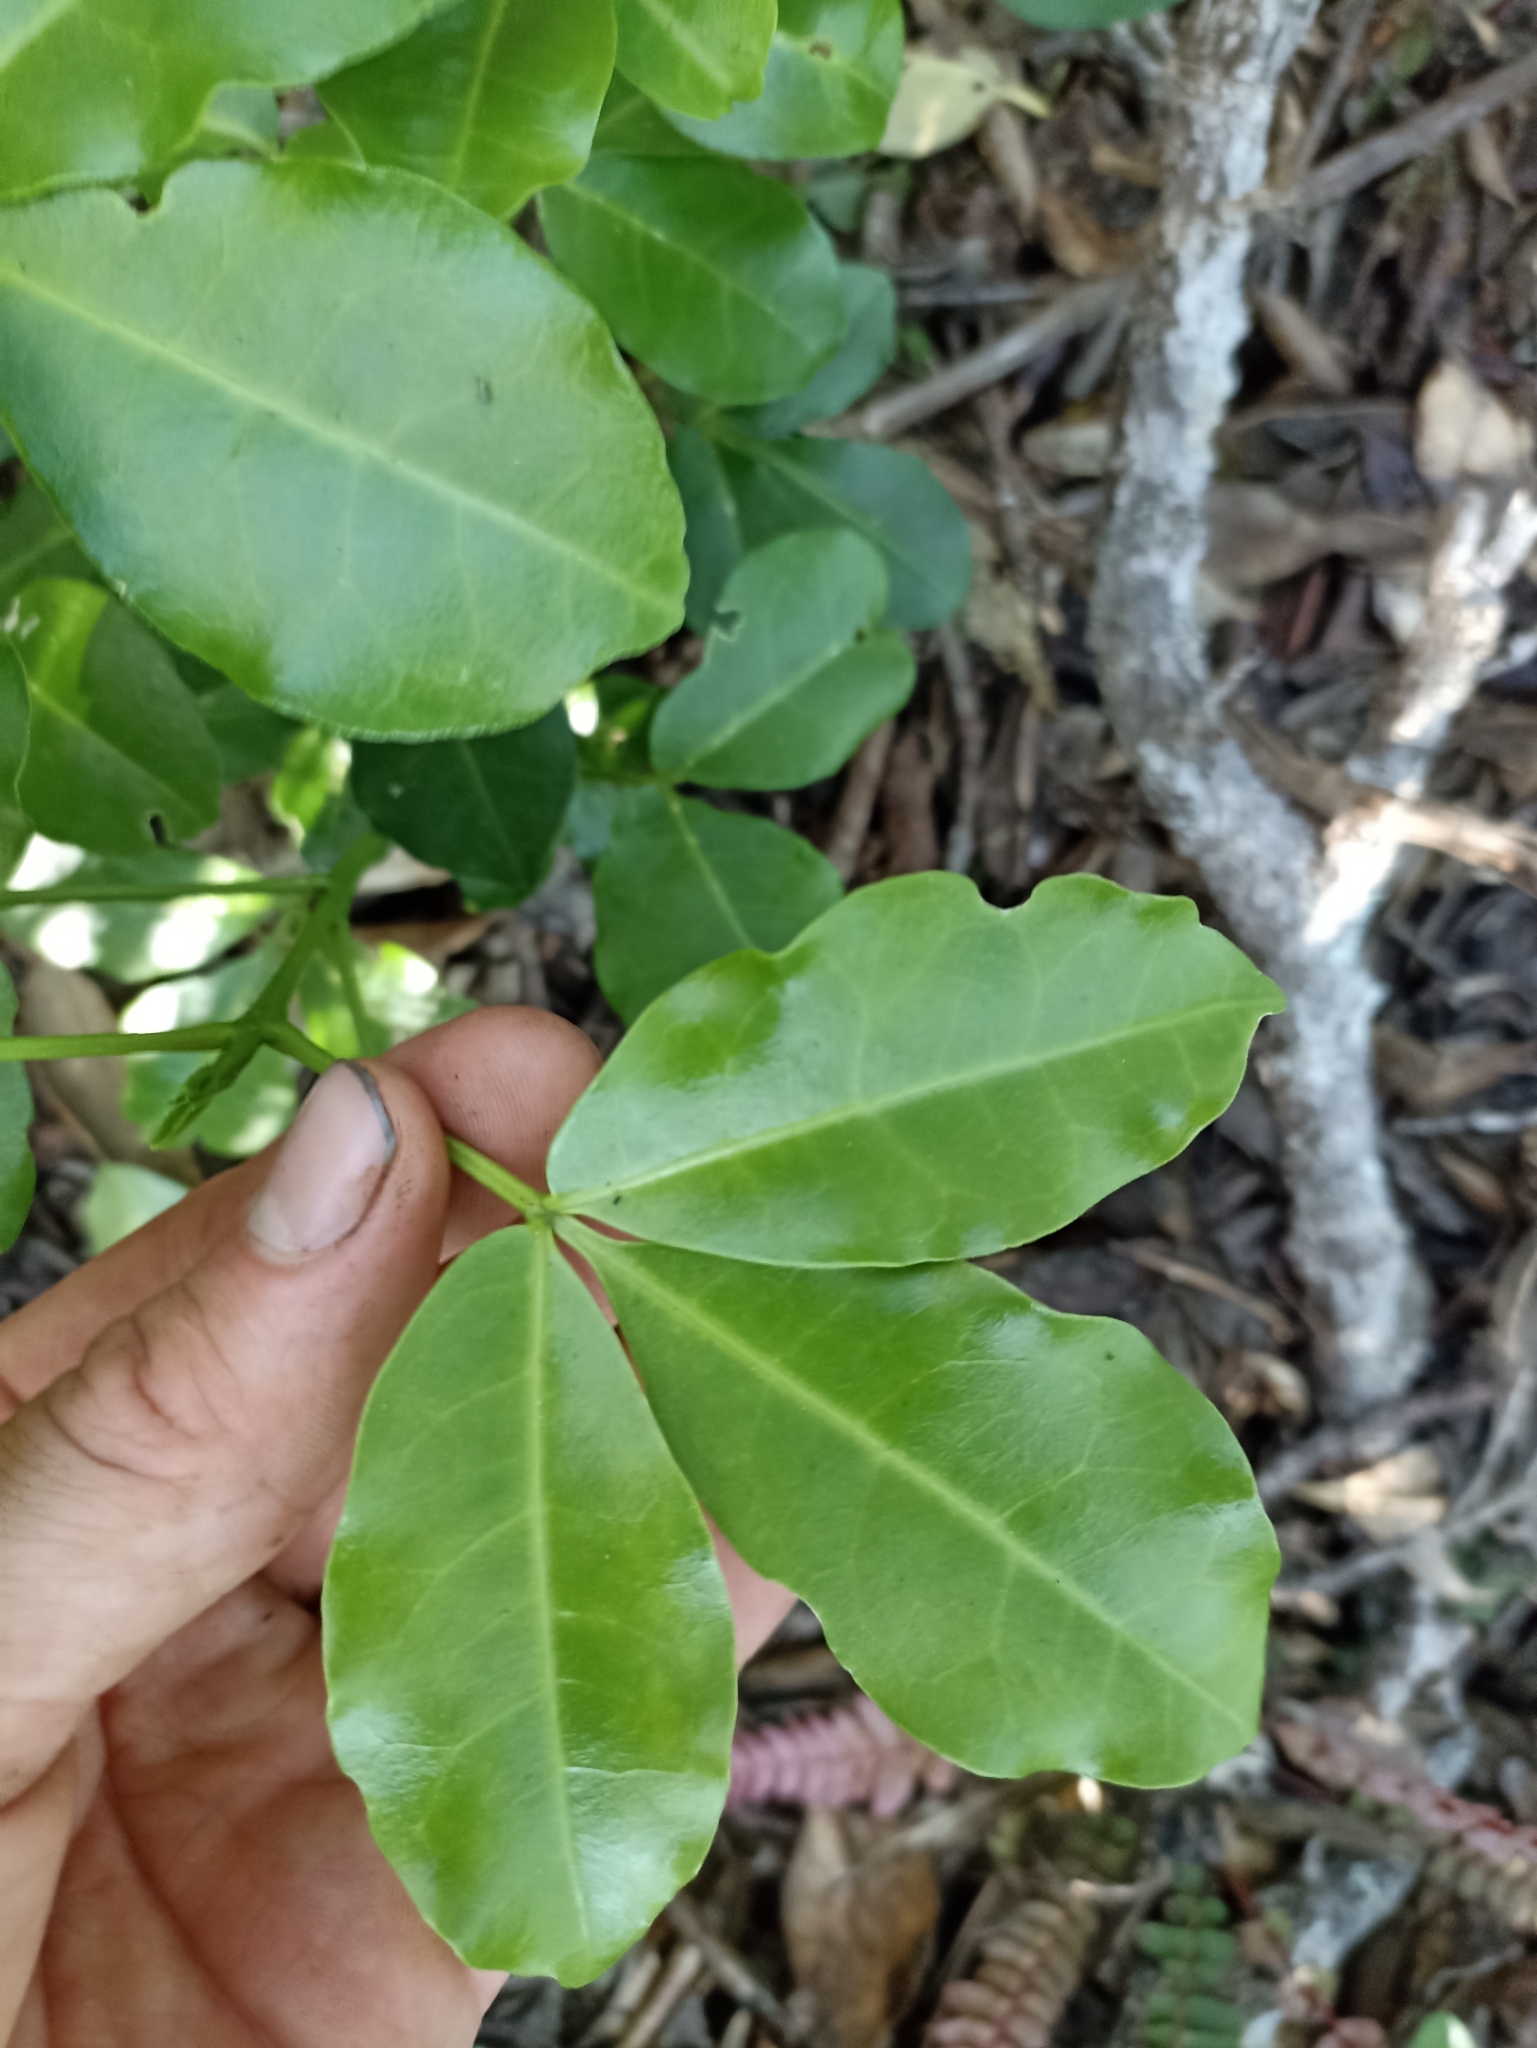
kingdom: Plantae
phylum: Tracheophyta
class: Magnoliopsida
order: Sapindales
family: Rutaceae
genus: Melicope
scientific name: Melicope ternata
